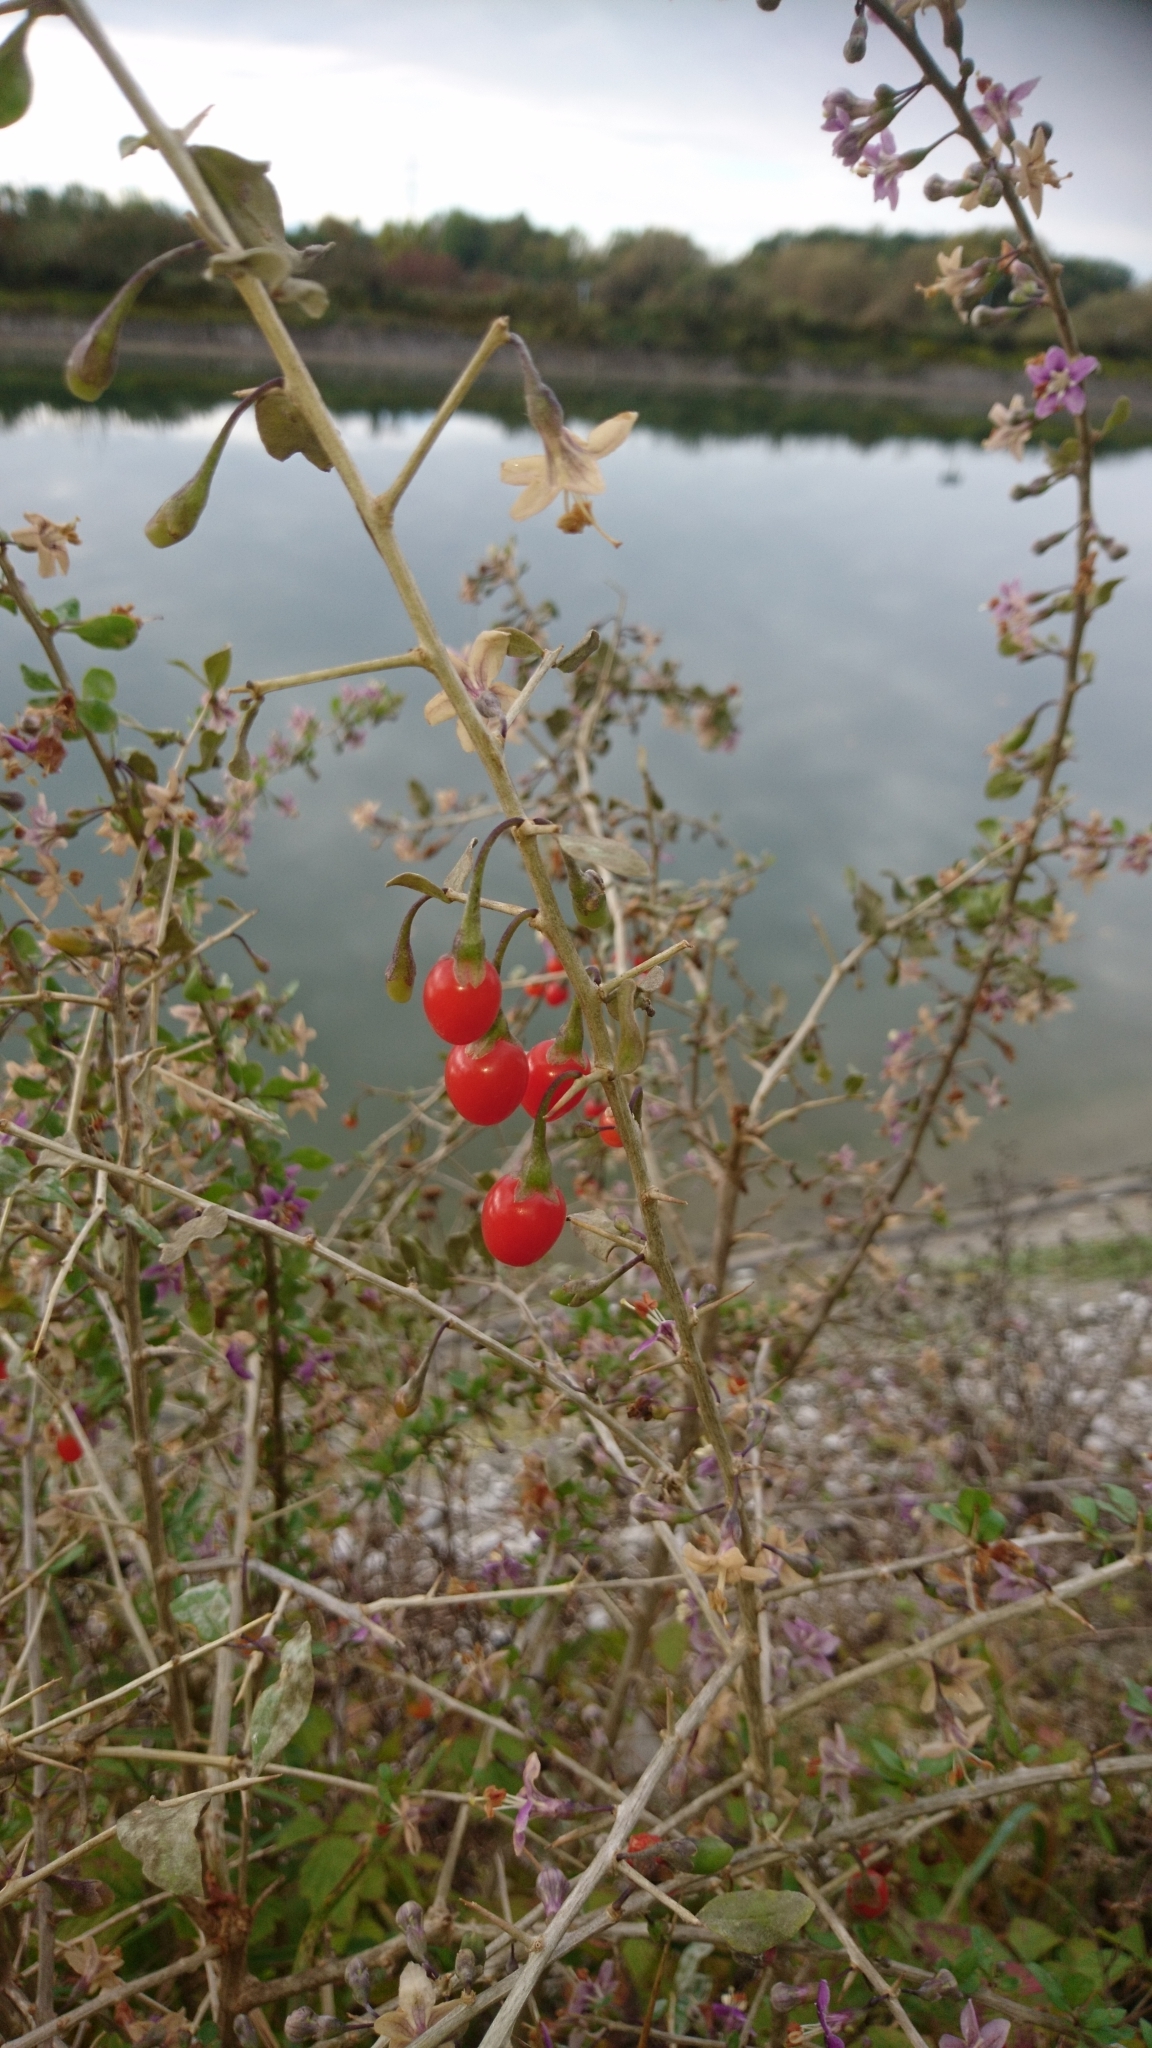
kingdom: Plantae
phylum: Tracheophyta
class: Magnoliopsida
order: Solanales
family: Solanaceae
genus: Solanum
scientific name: Solanum dulcamara
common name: Climbing nightshade
